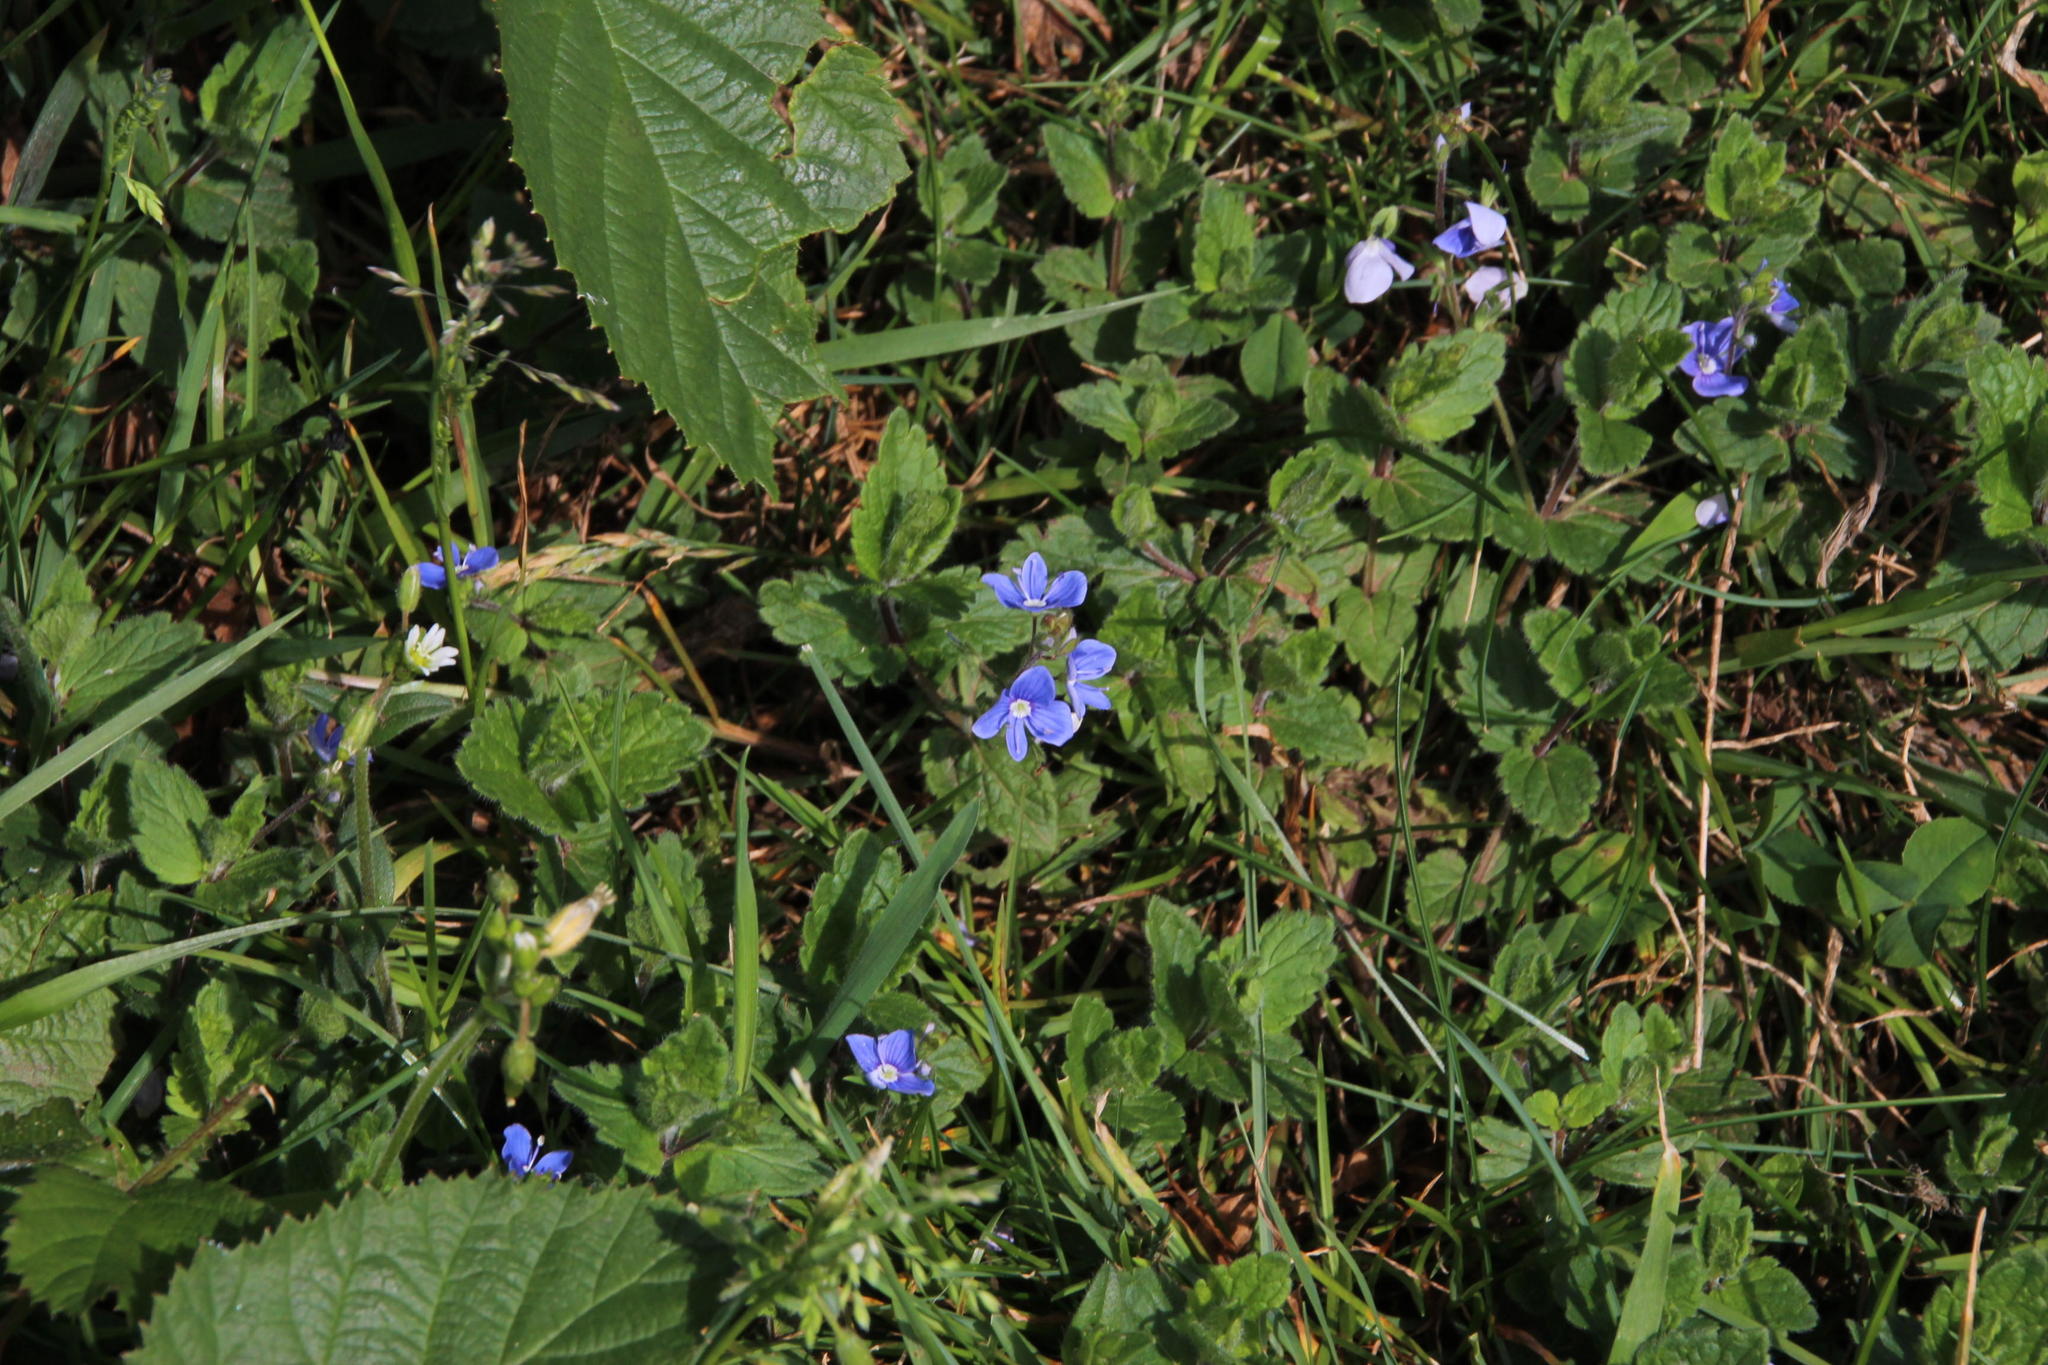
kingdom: Plantae
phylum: Tracheophyta
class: Magnoliopsida
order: Lamiales
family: Plantaginaceae
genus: Veronica
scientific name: Veronica chamaedrys
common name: Germander speedwell
